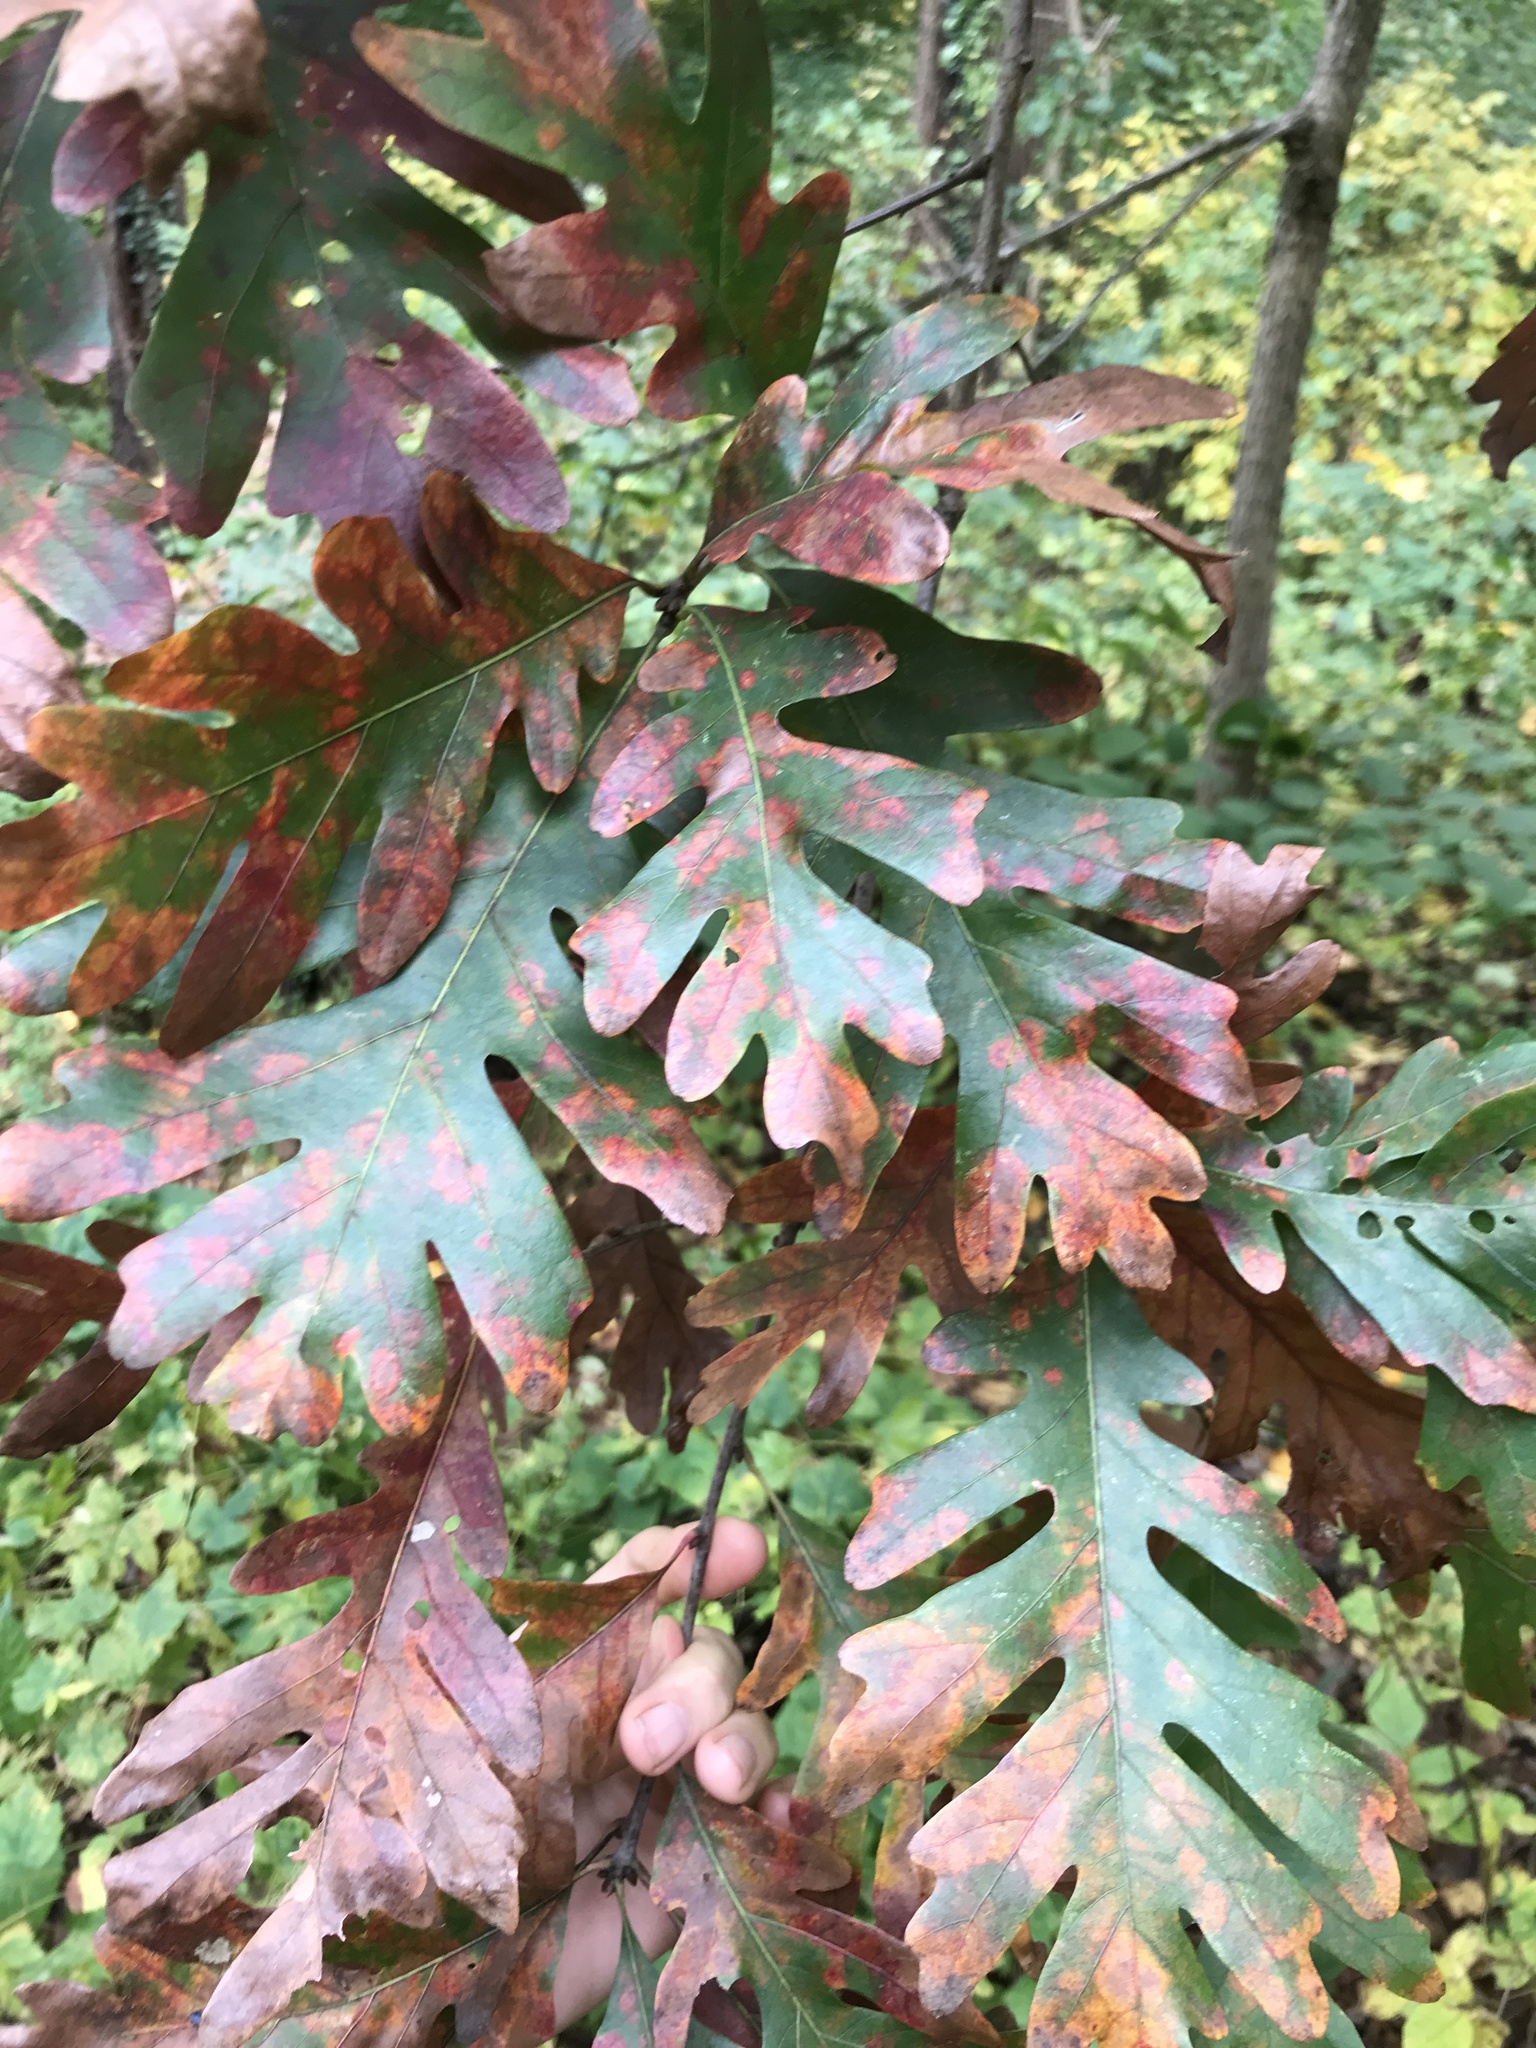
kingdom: Plantae
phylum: Tracheophyta
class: Magnoliopsida
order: Fagales
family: Fagaceae
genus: Quercus
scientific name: Quercus alba
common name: White oak
